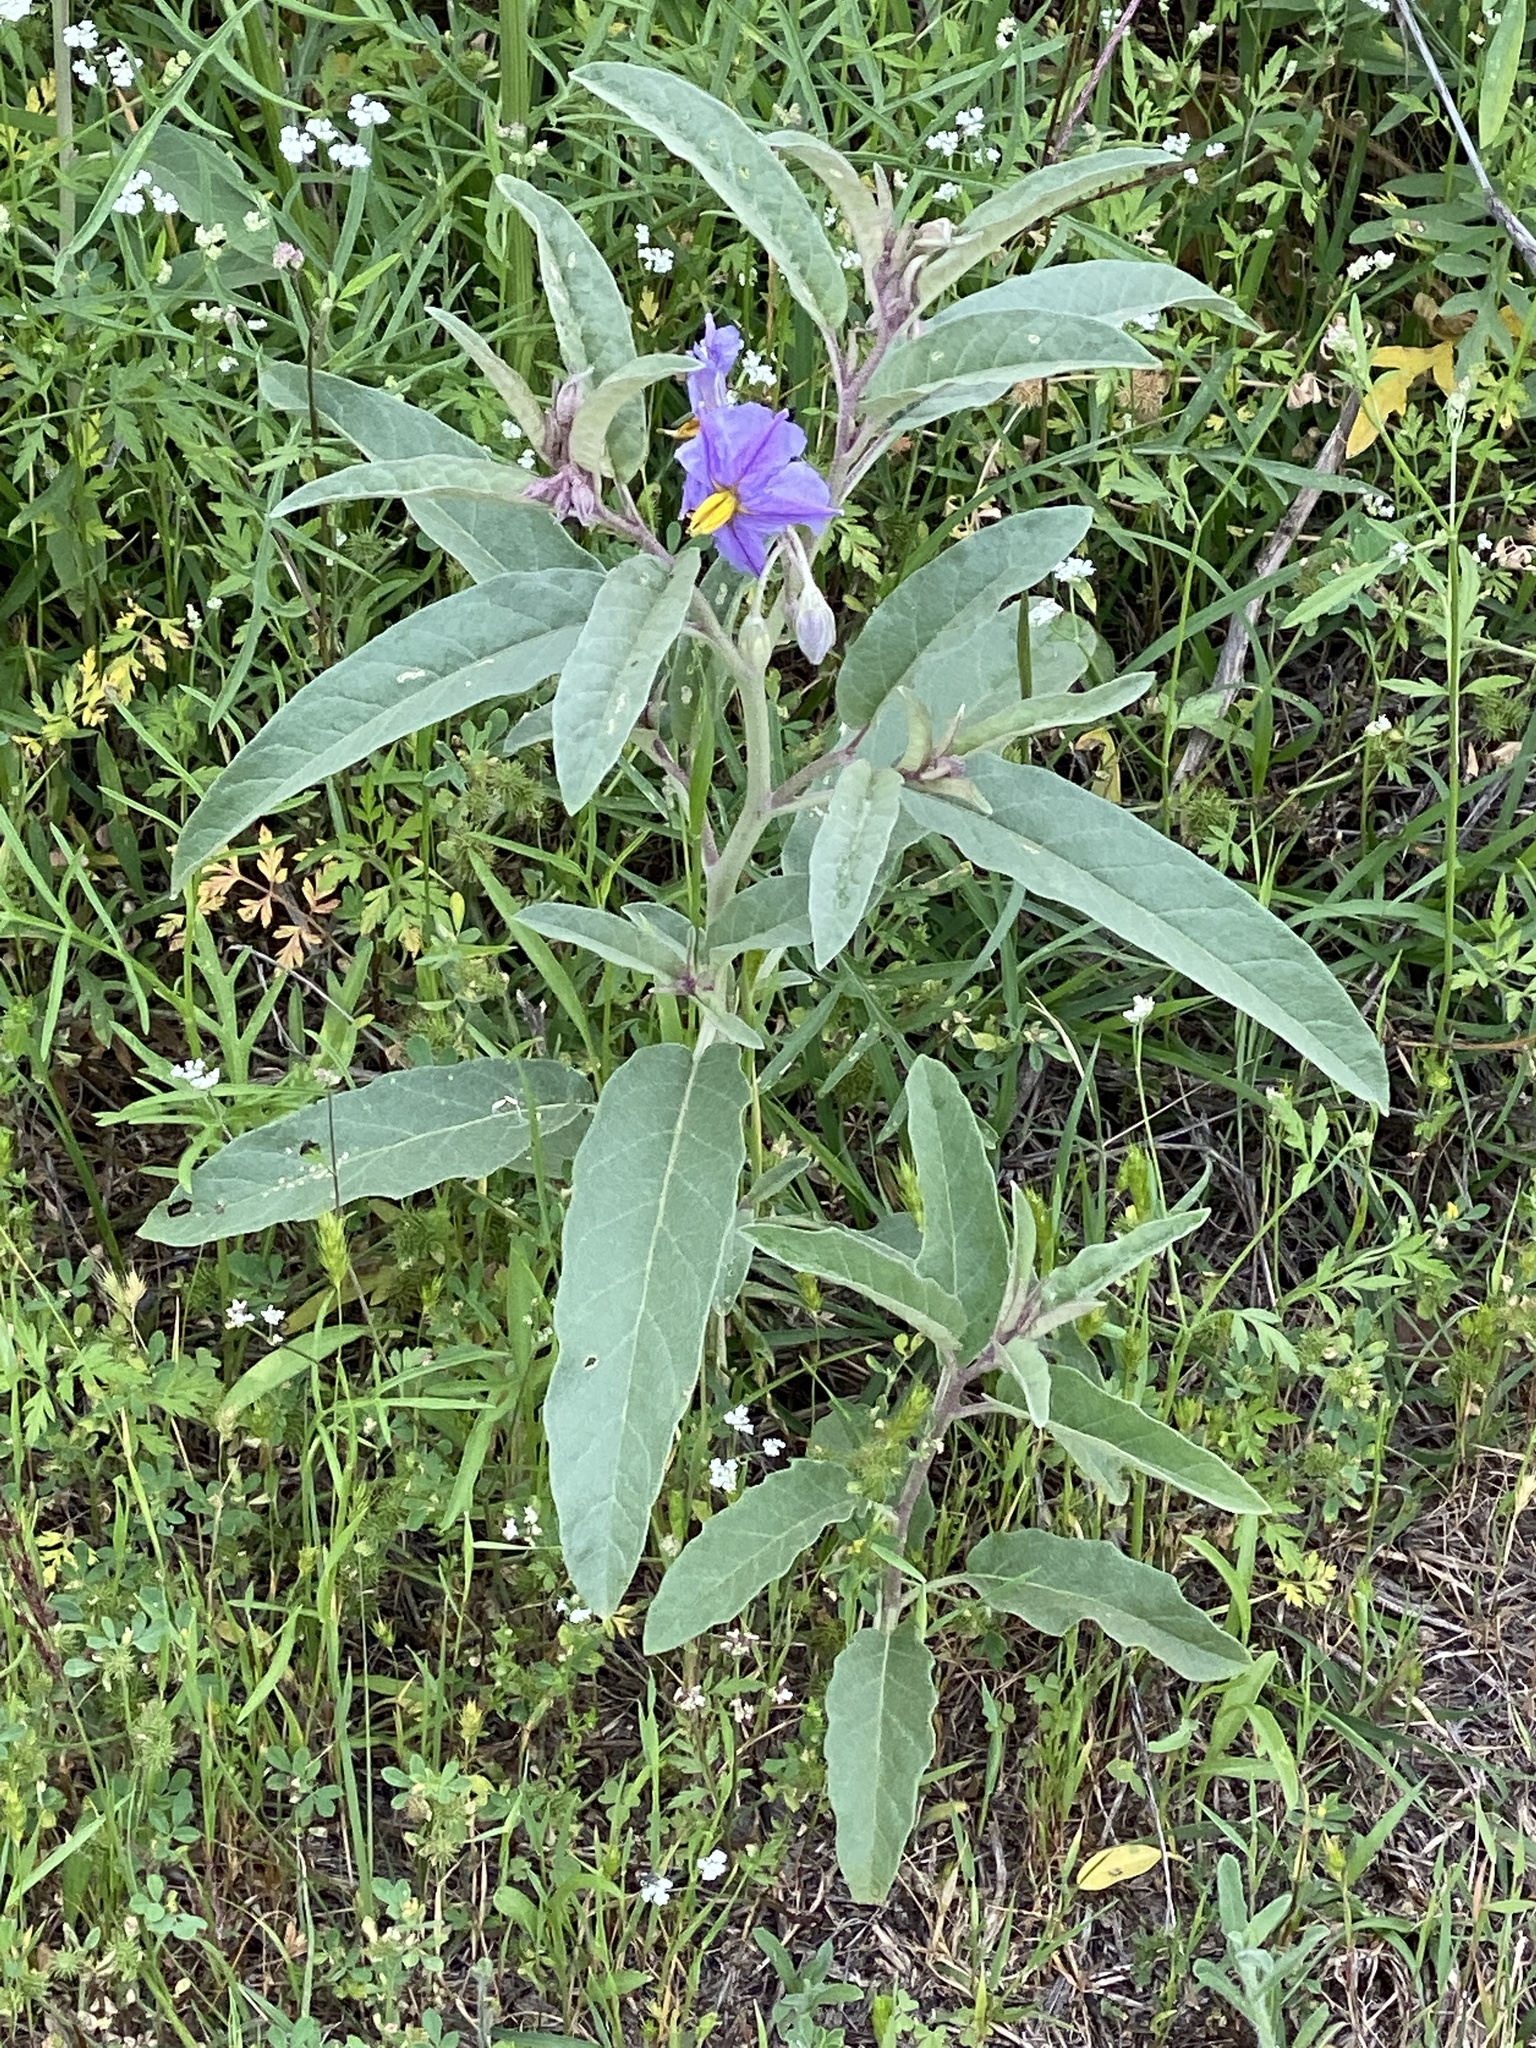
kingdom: Plantae
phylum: Tracheophyta
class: Magnoliopsida
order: Solanales
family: Solanaceae
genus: Solanum
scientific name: Solanum elaeagnifolium
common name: Silverleaf nightshade
